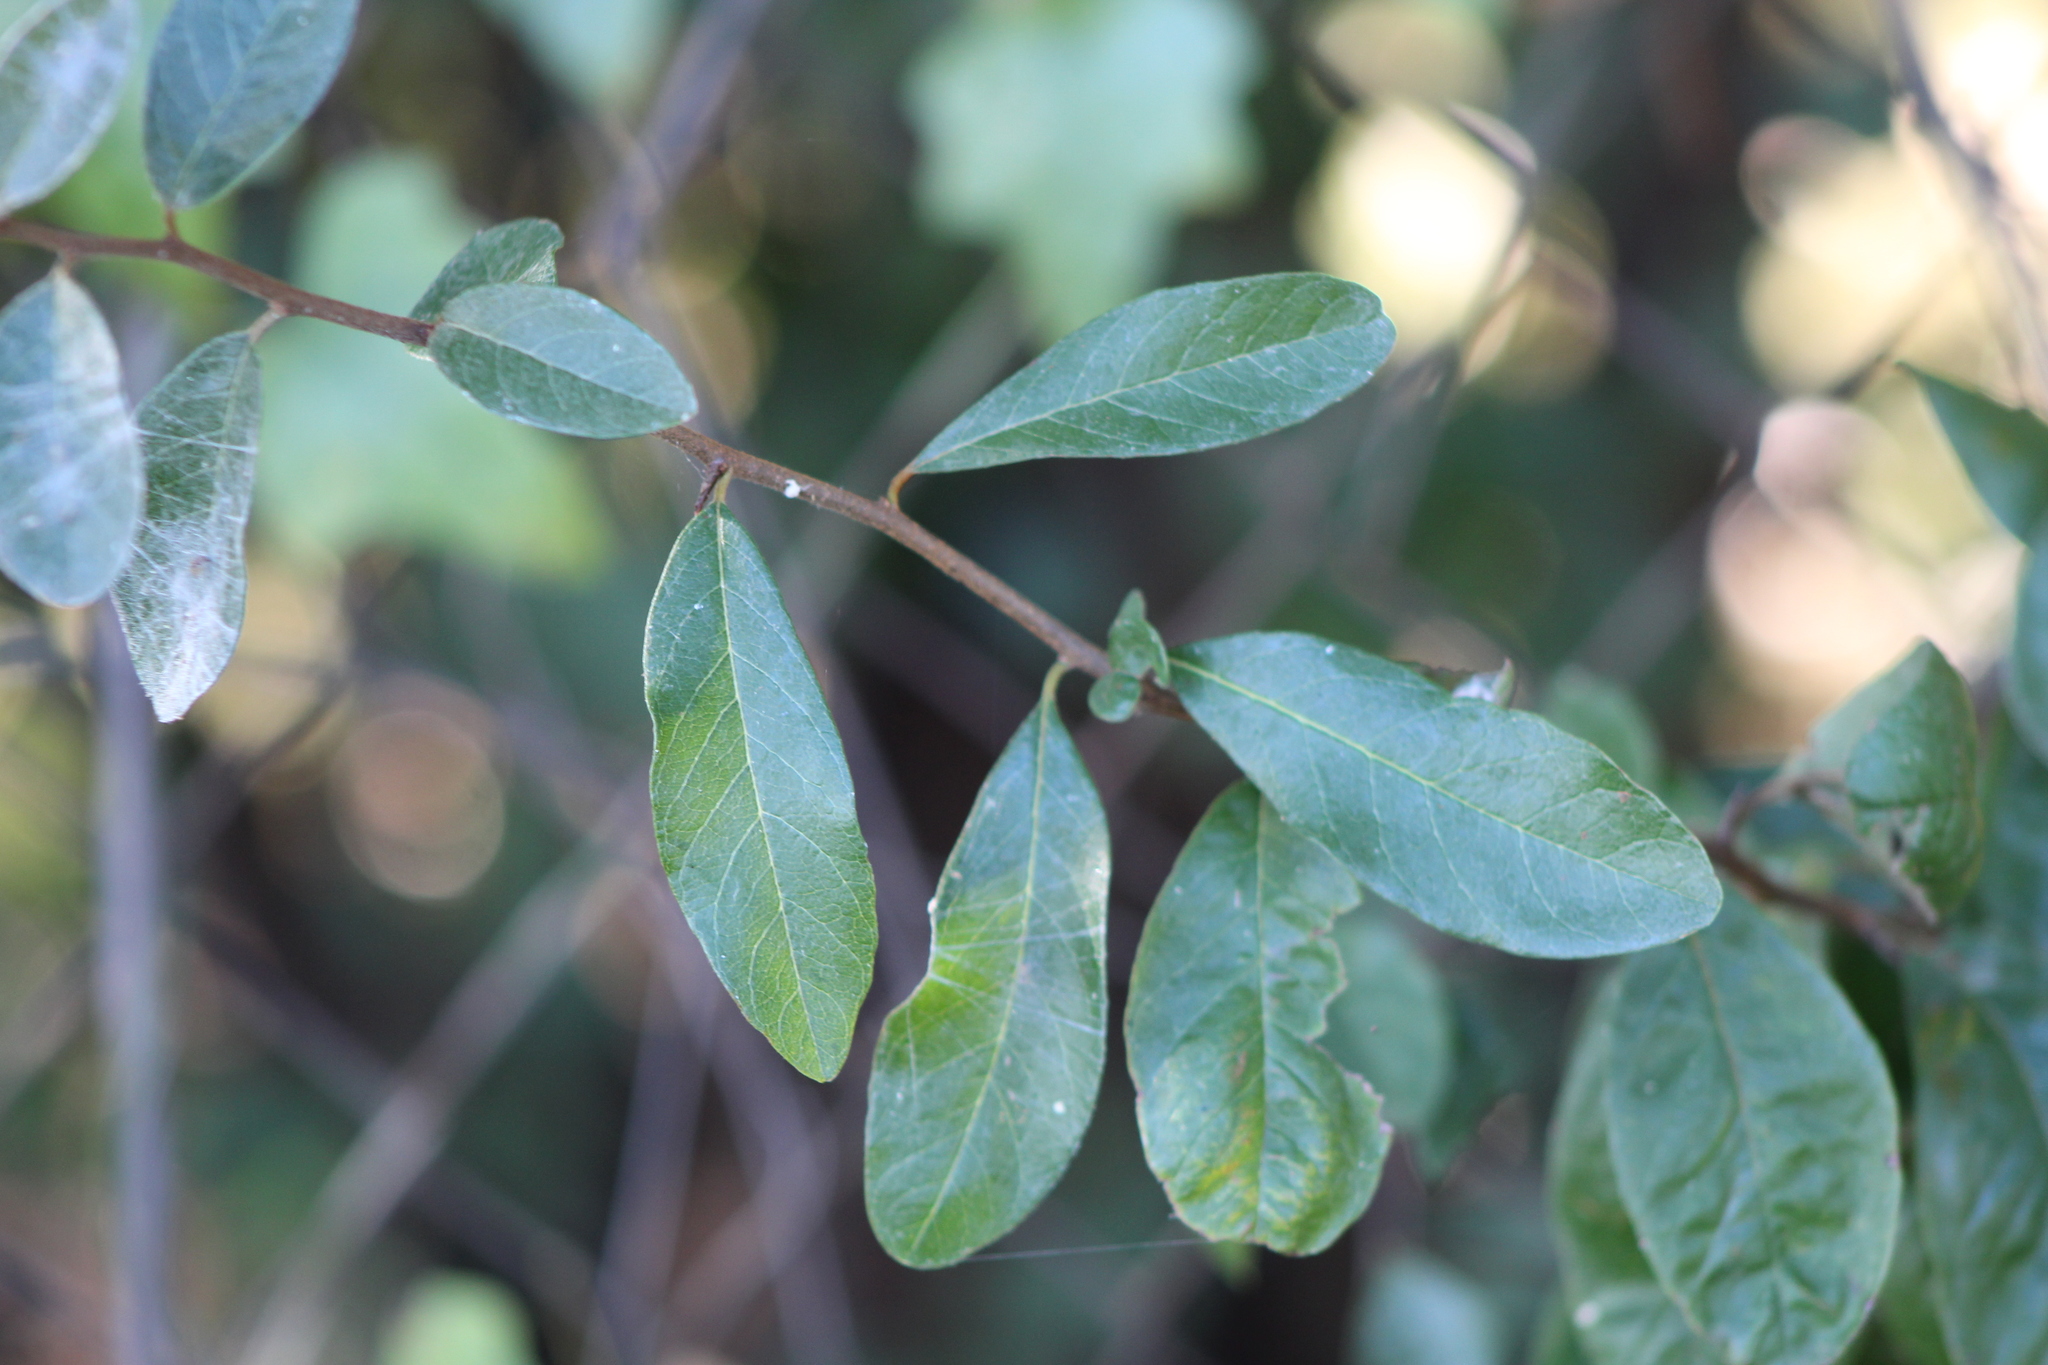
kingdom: Plantae
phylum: Tracheophyta
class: Magnoliopsida
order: Ericales
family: Sapotaceae
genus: Sideroxylon
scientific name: Sideroxylon lanuginosum
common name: Chittamwood
